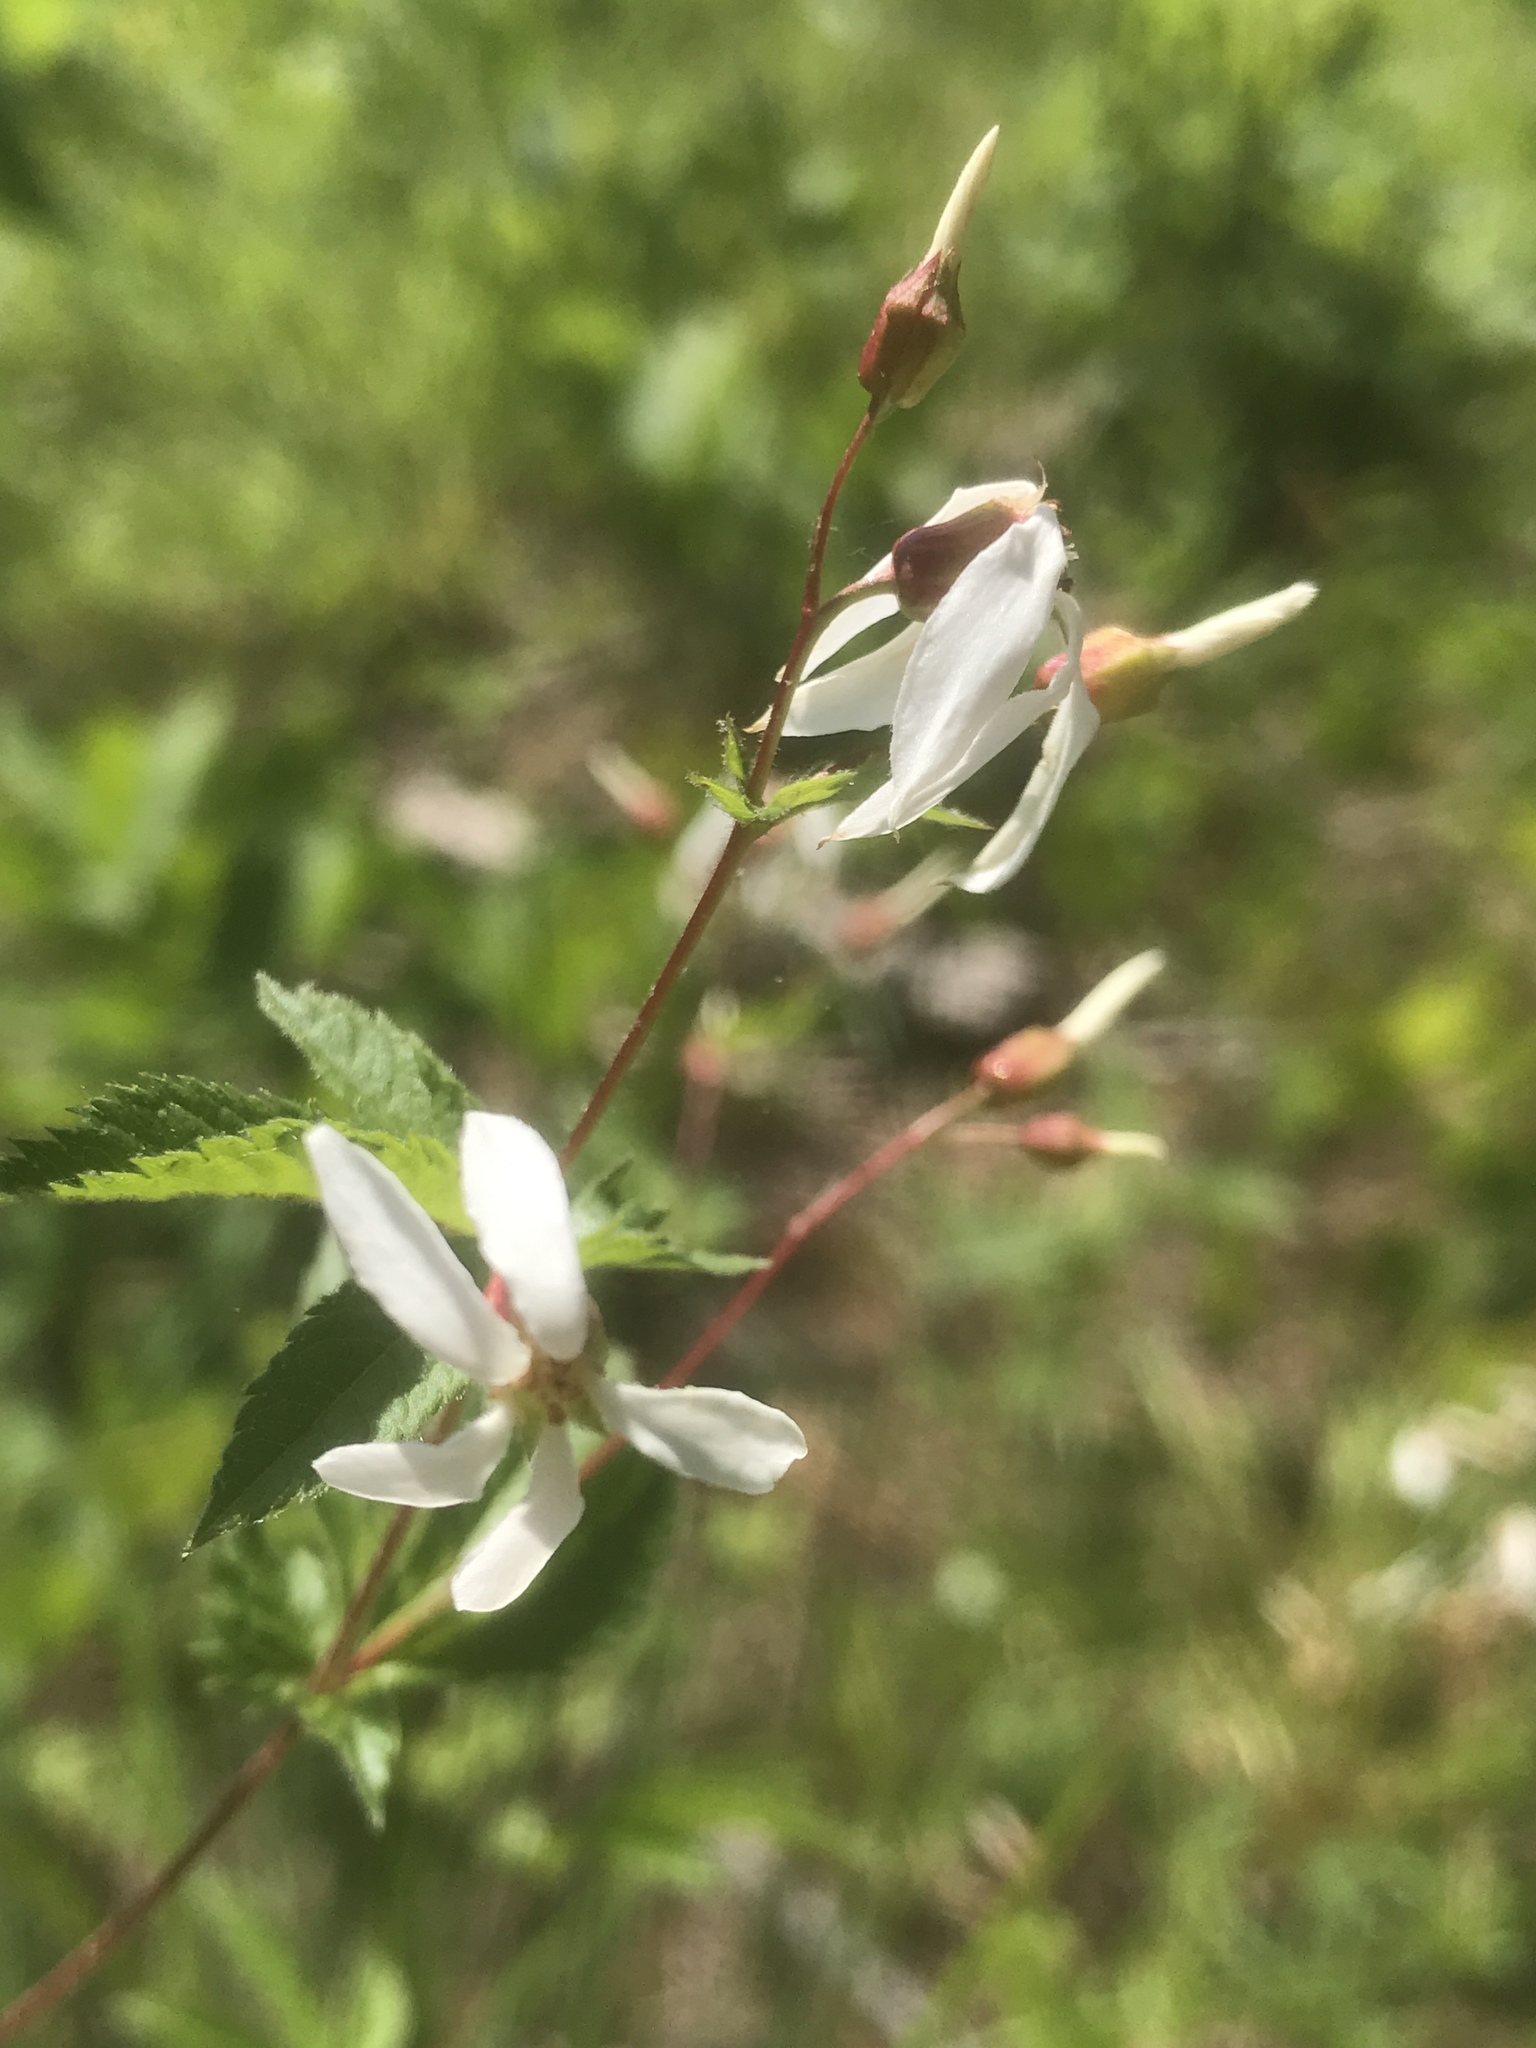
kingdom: Plantae
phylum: Tracheophyta
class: Magnoliopsida
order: Rosales
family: Rosaceae
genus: Gillenia
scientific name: Gillenia stipulata
